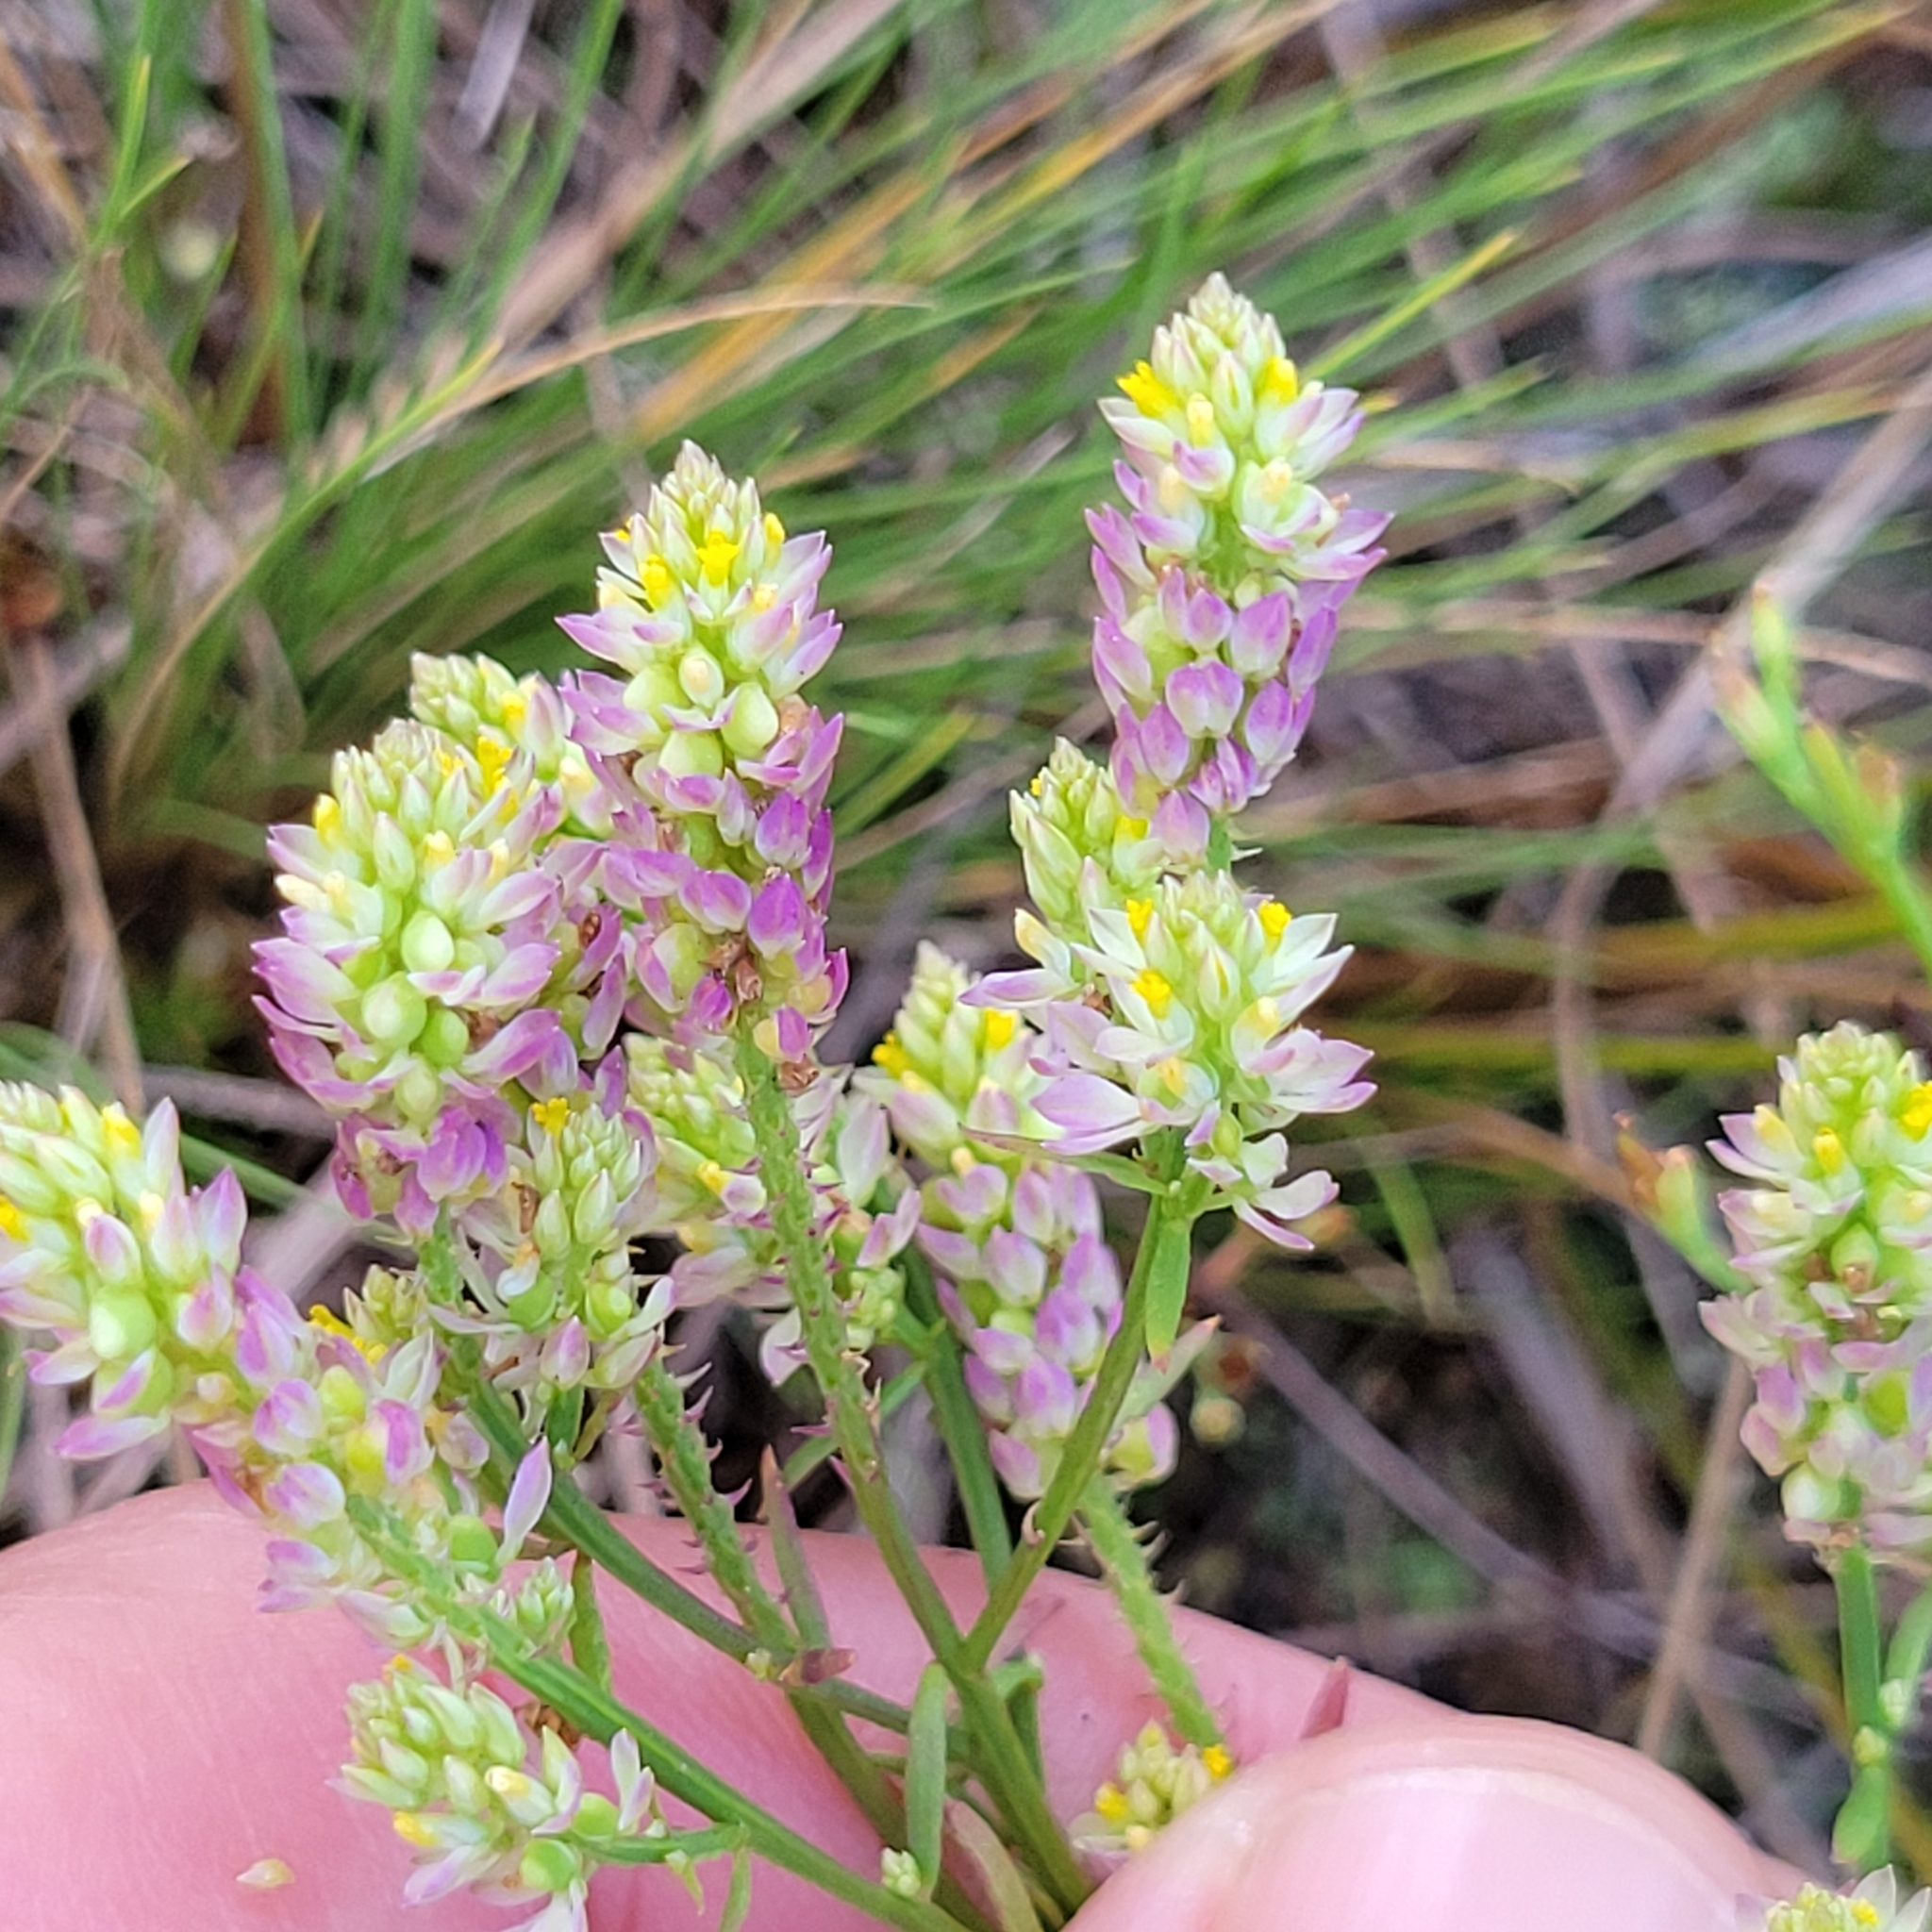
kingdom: Plantae
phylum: Tracheophyta
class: Magnoliopsida
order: Fabales
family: Polygalaceae
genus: Polygala
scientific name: Polygala nuttallii
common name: Nuttall's milkwort
